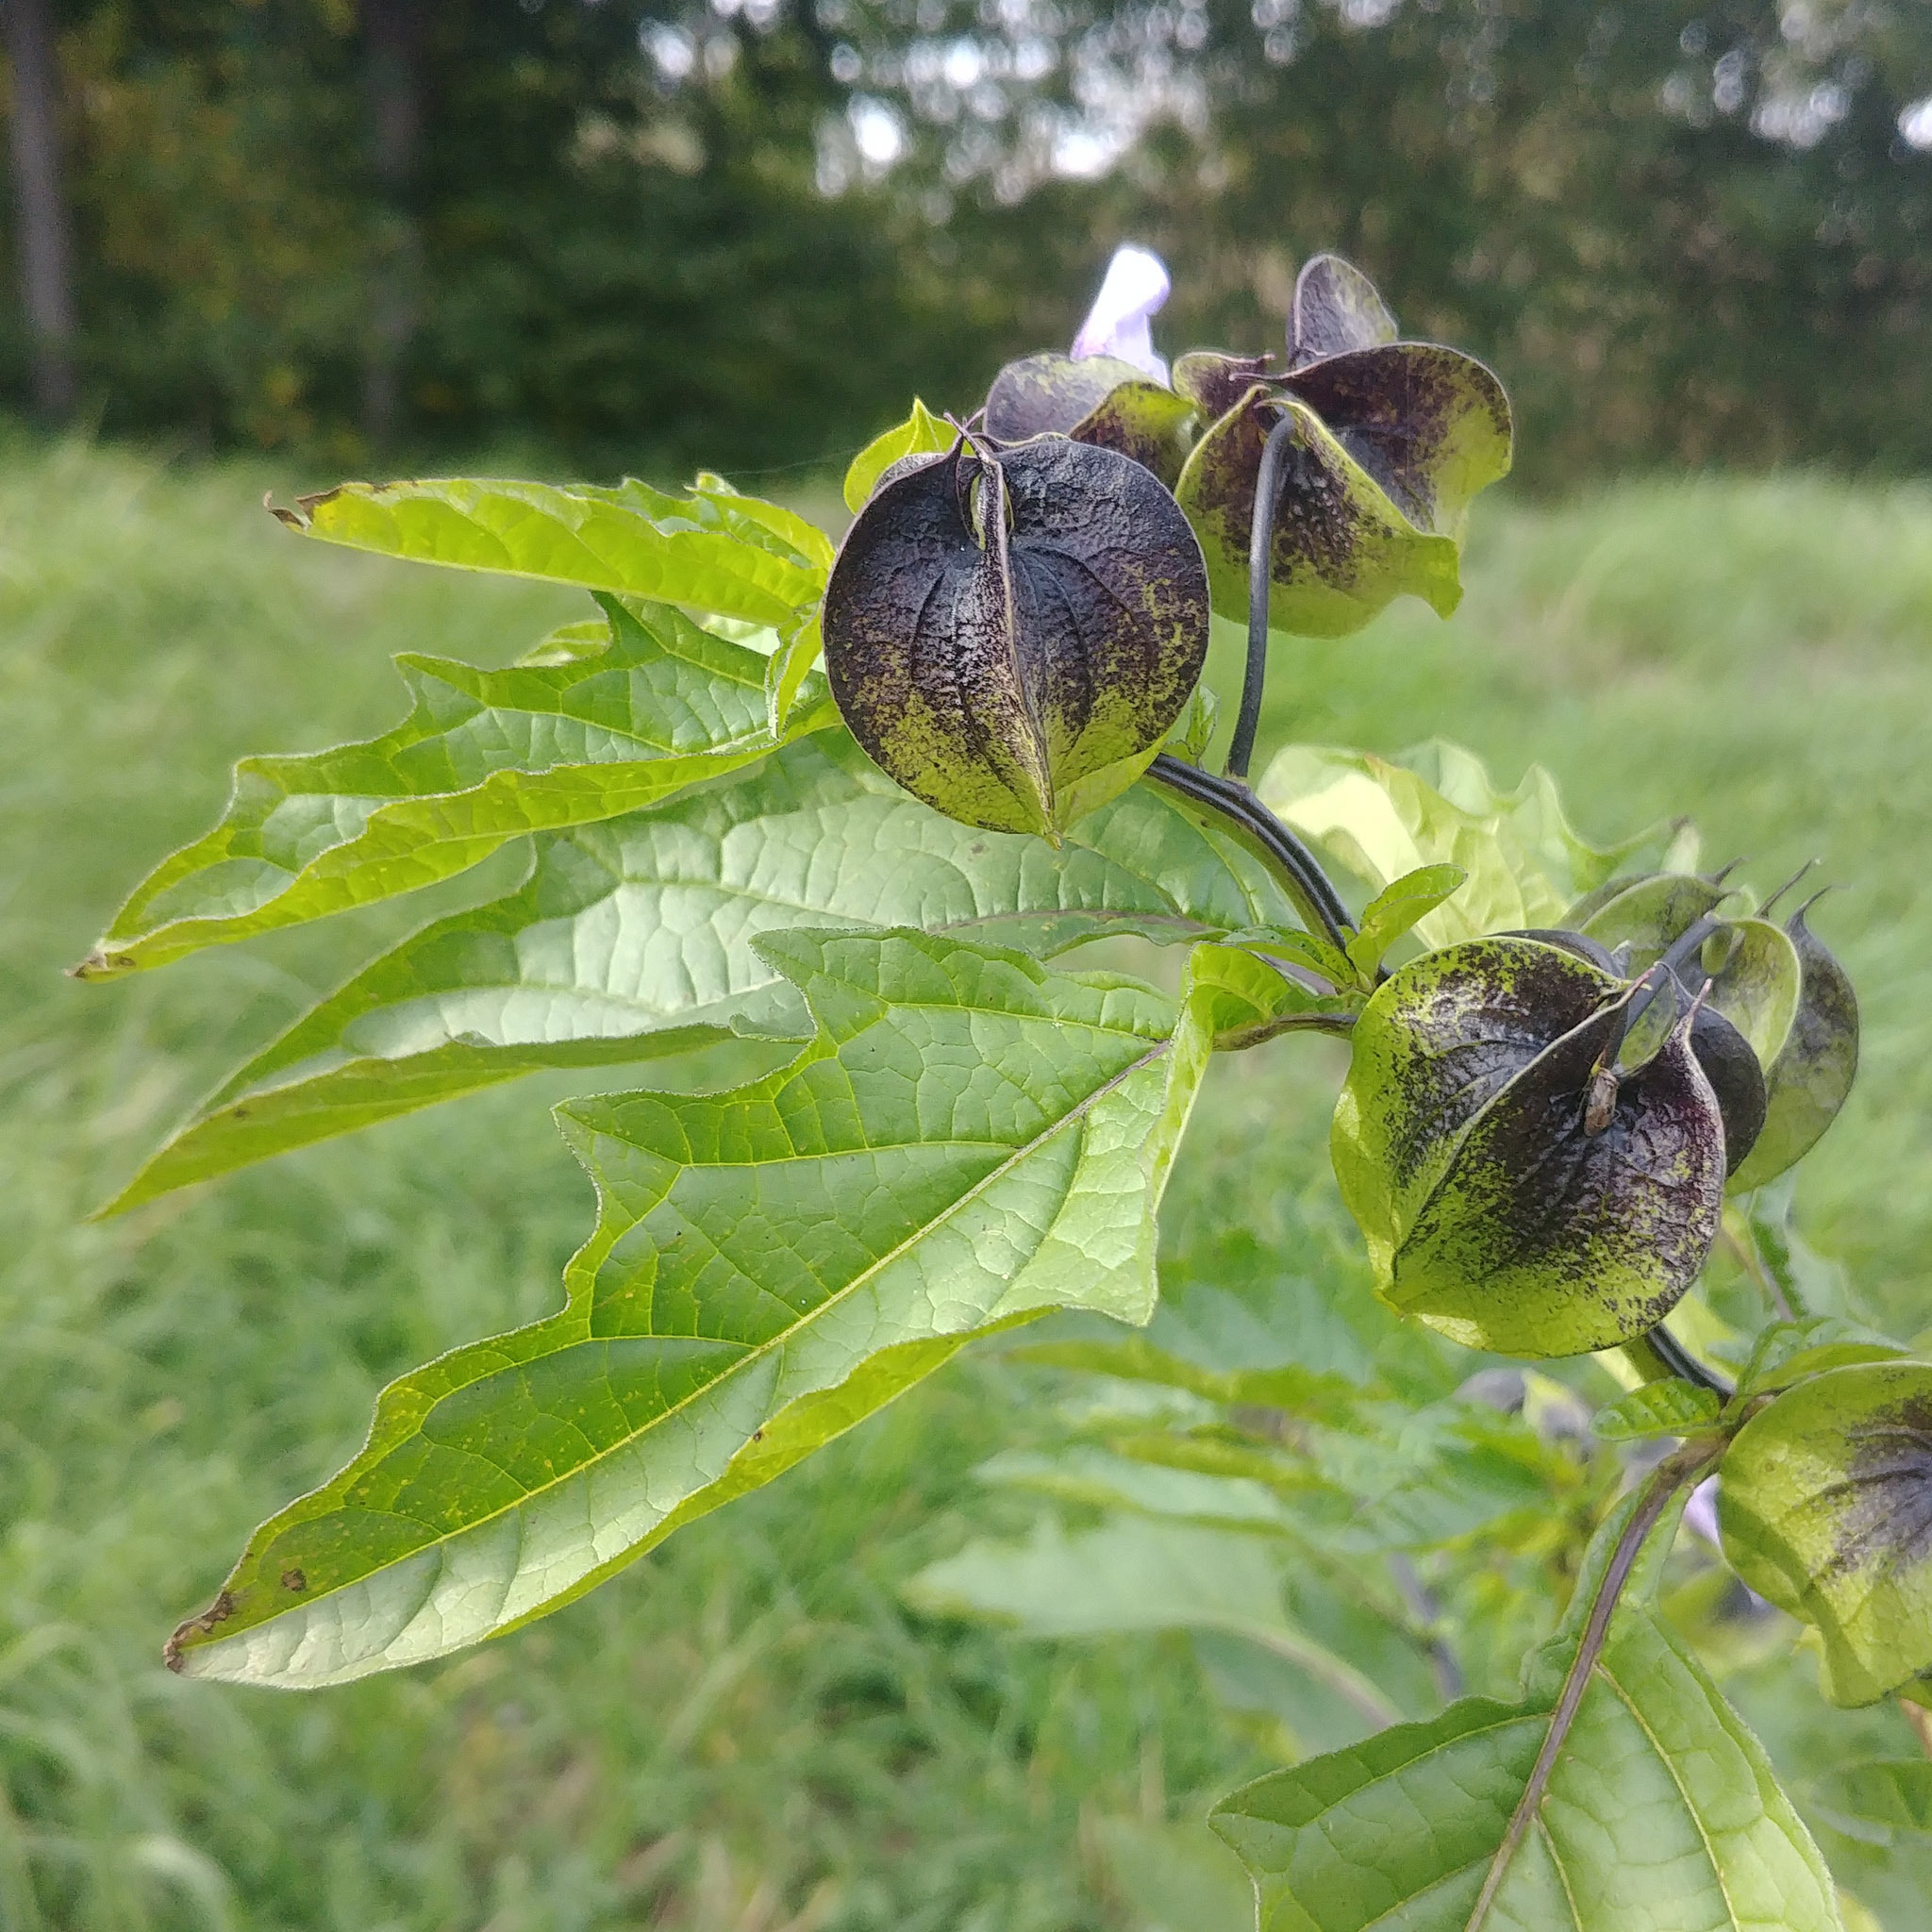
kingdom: Plantae
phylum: Tracheophyta
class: Magnoliopsida
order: Solanales
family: Solanaceae
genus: Nicandra
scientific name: Nicandra physalodes
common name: Apple-of-peru
